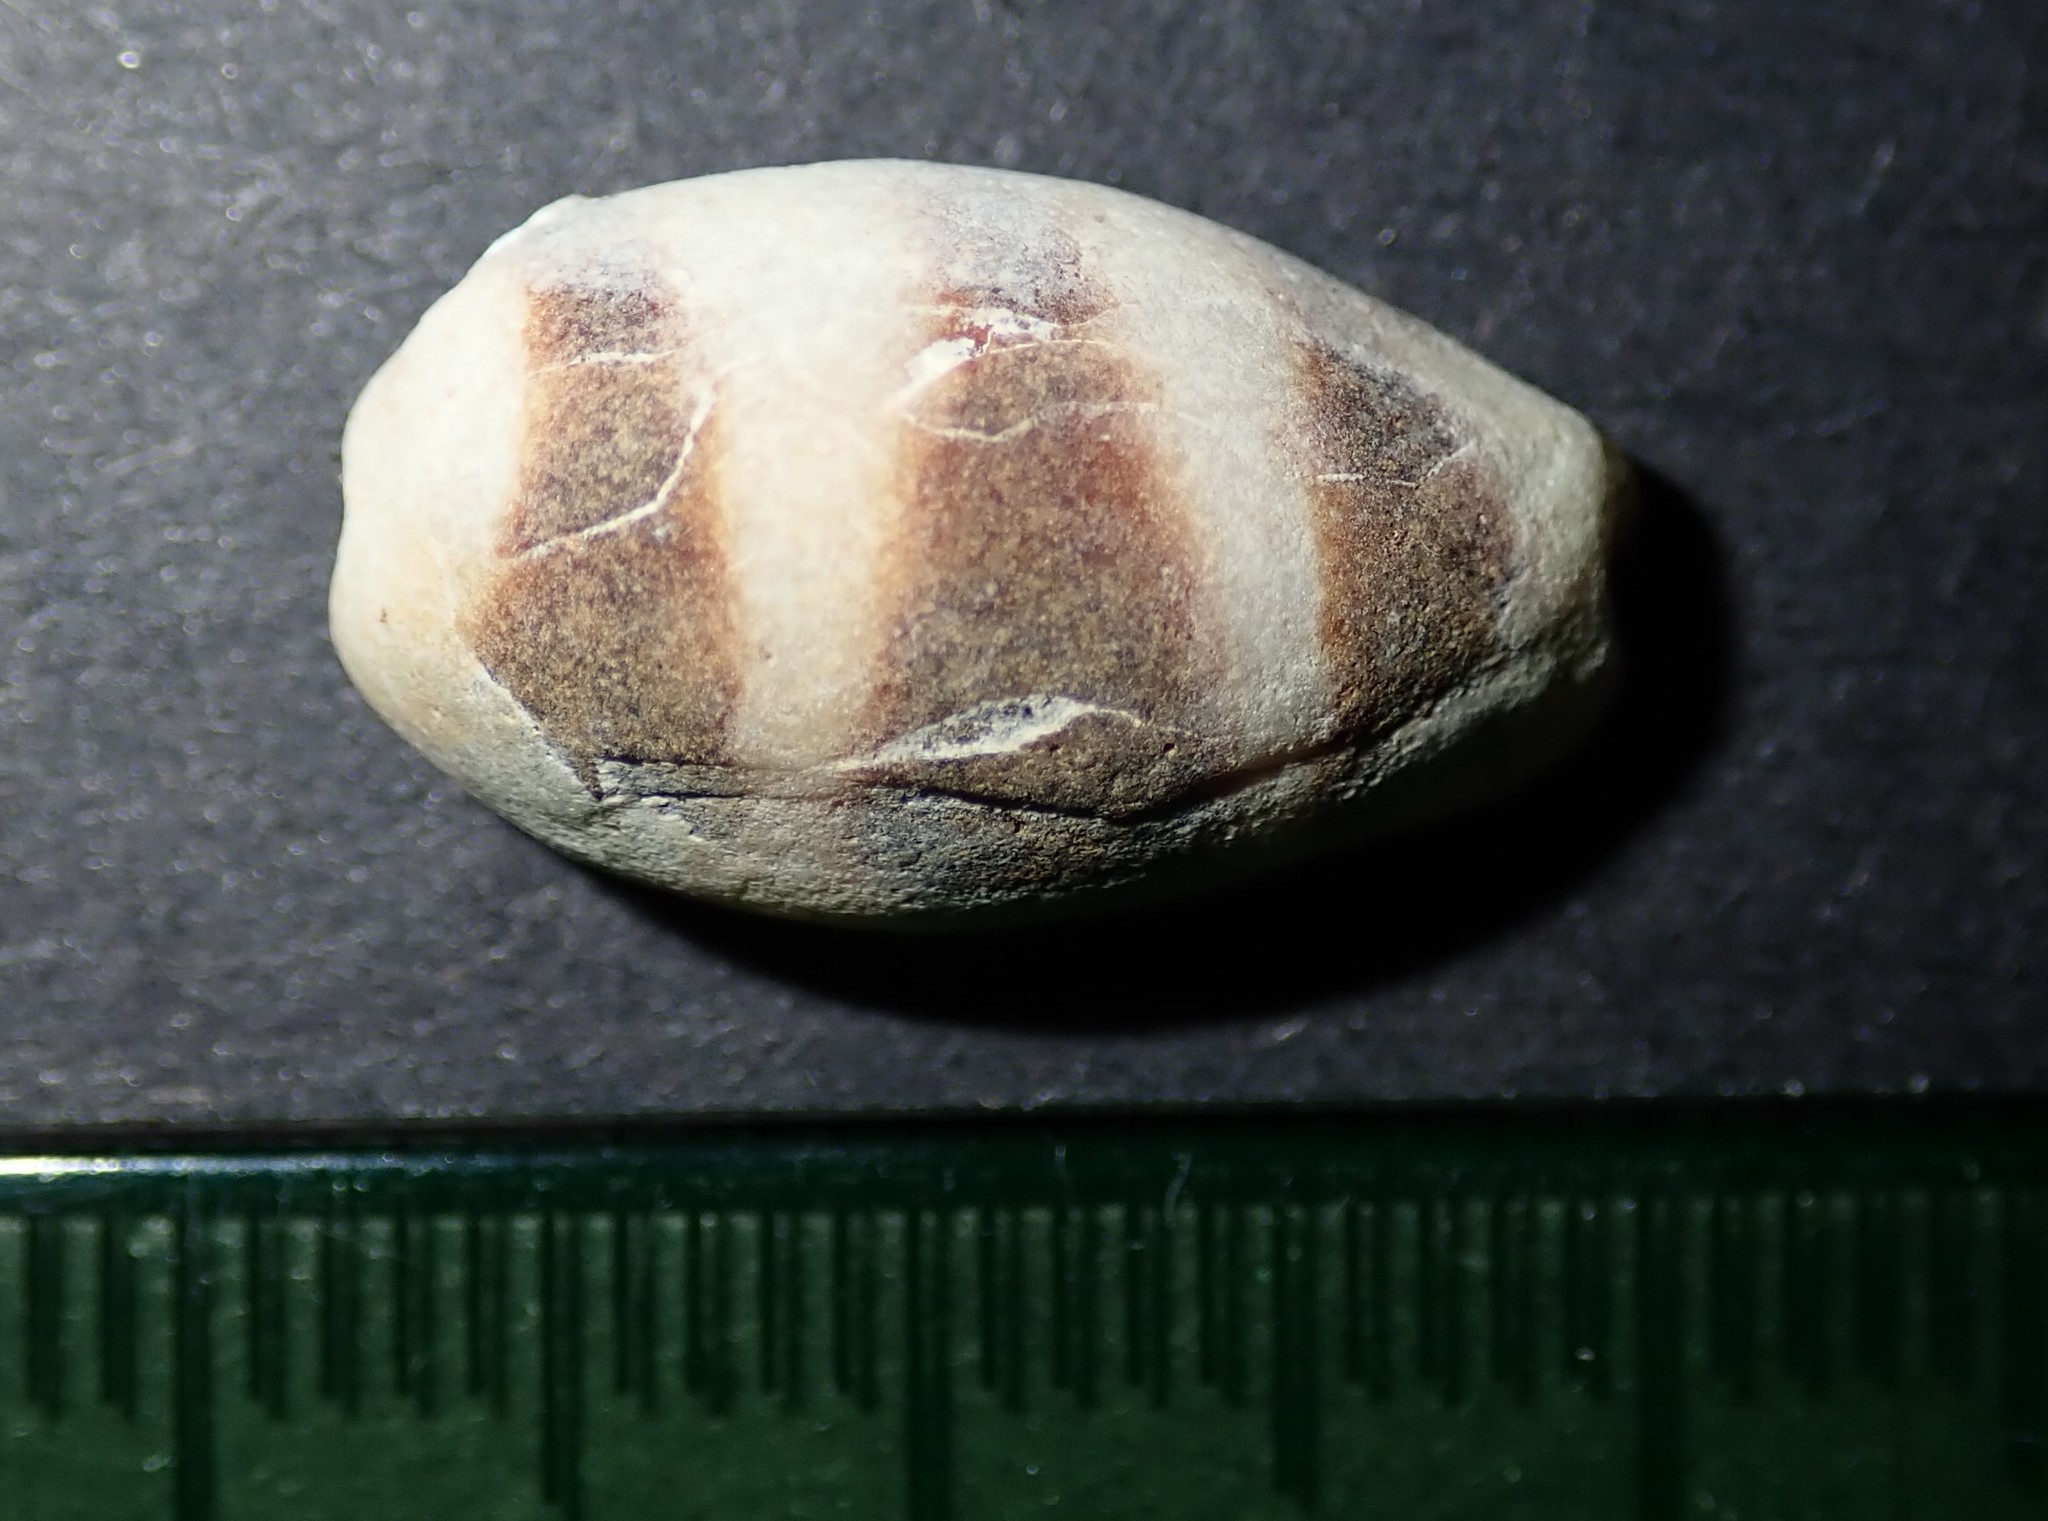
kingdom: Animalia
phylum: Mollusca
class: Gastropoda
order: Littorinimorpha
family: Cypraeidae
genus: Palmadusta
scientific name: Palmadusta asellus
